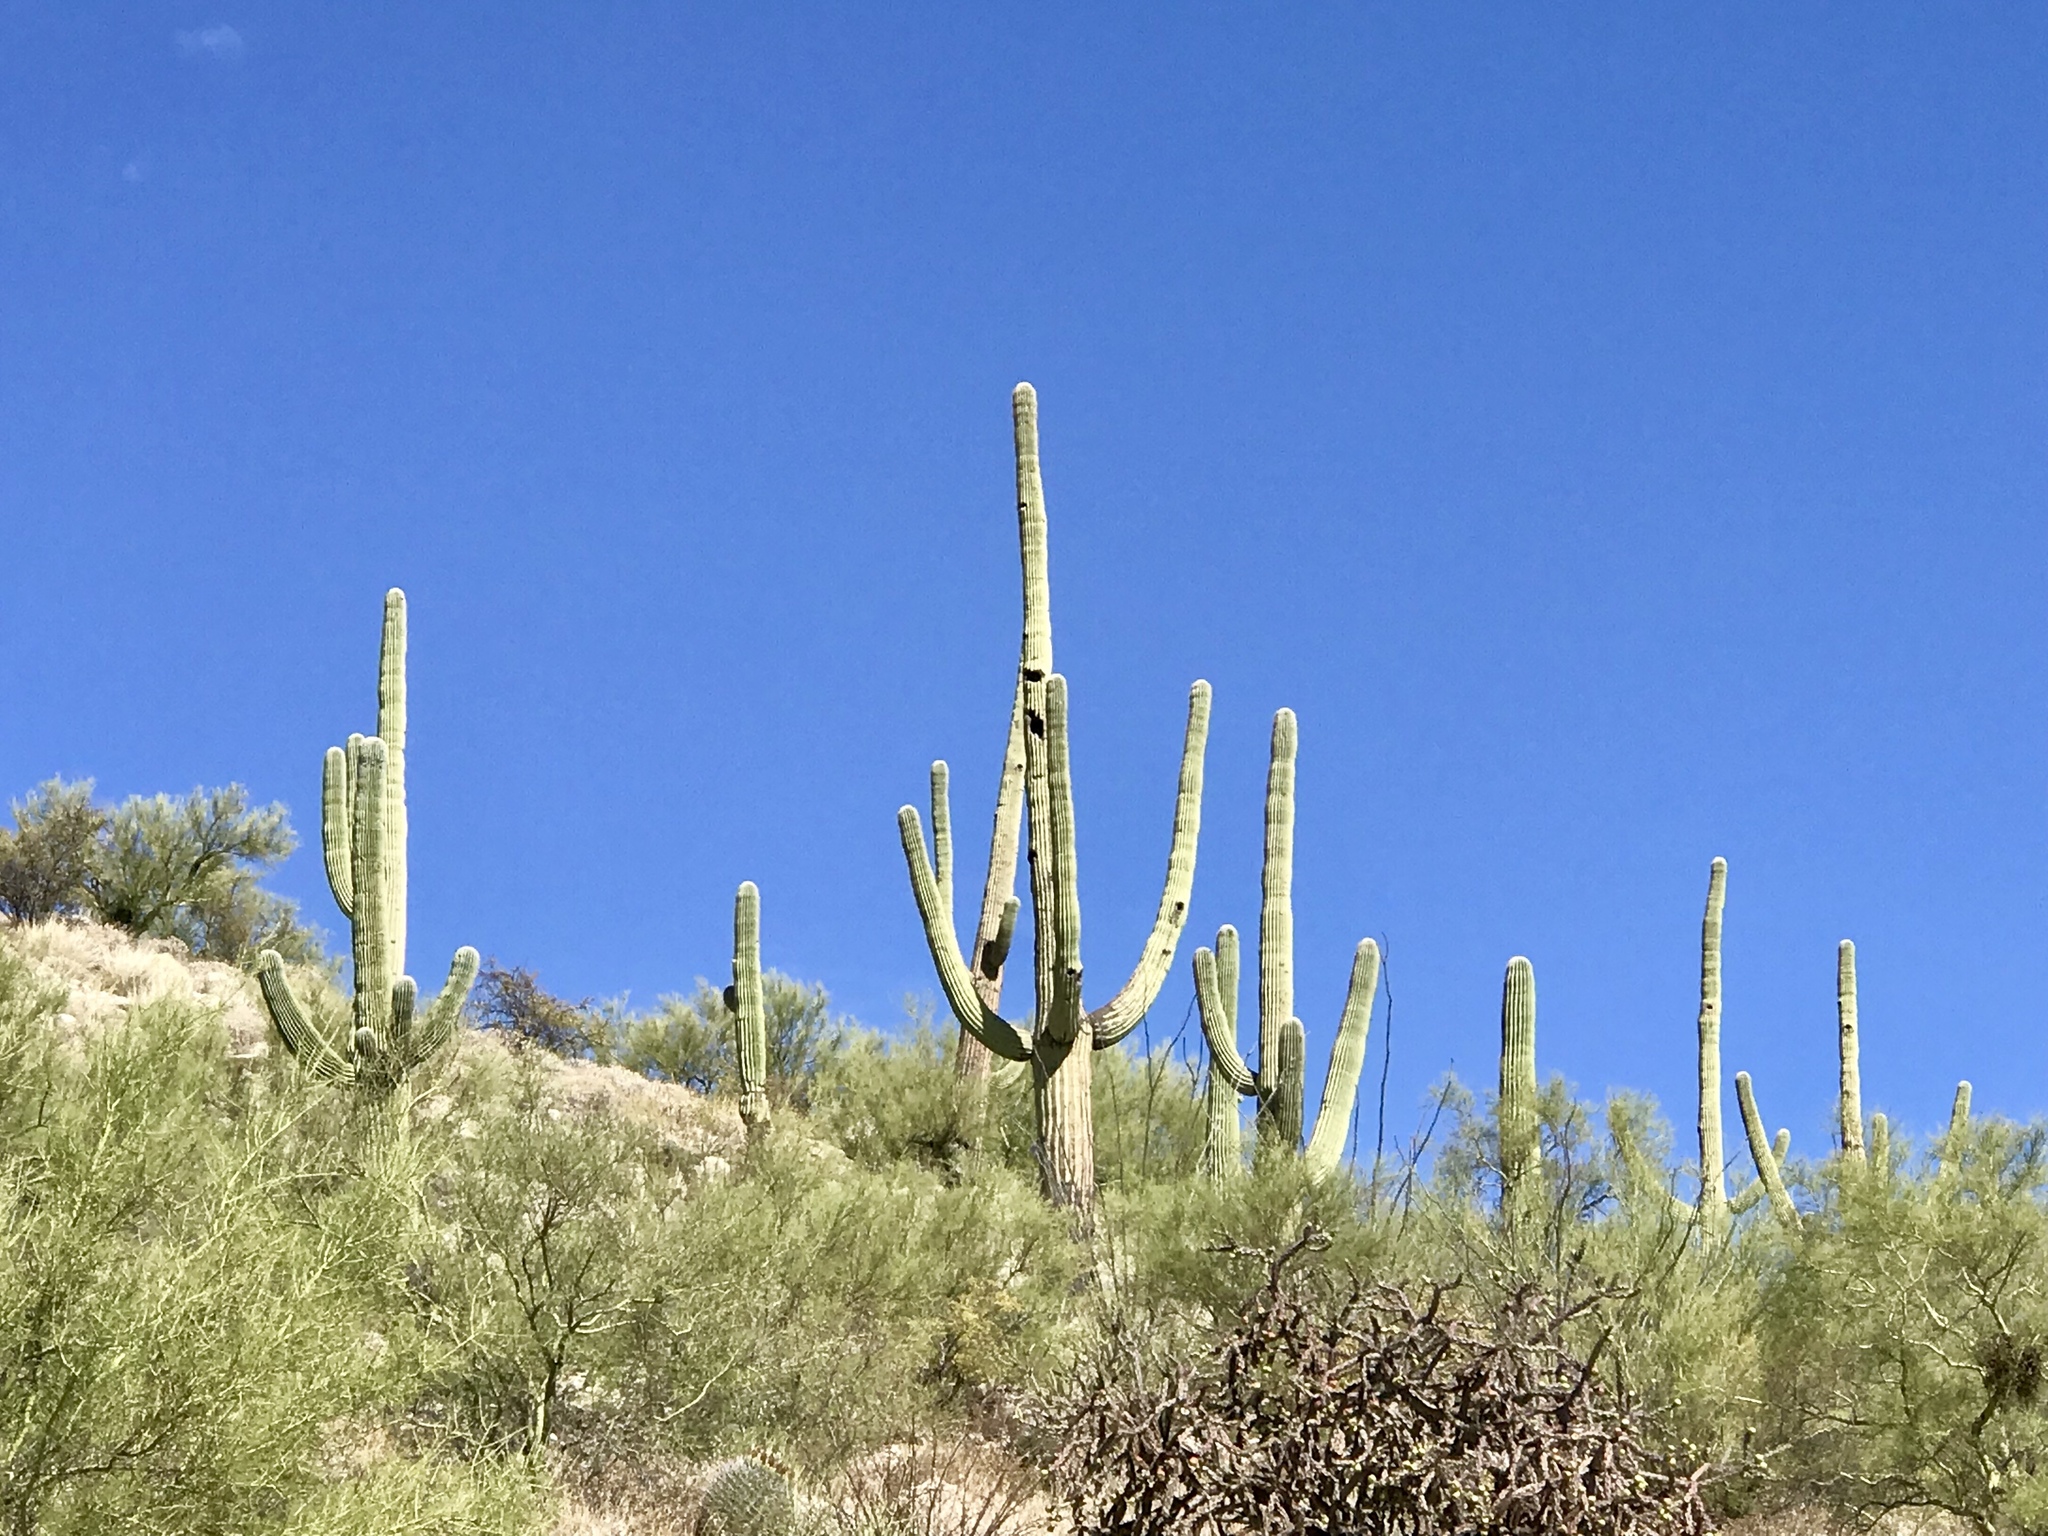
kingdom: Plantae
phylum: Tracheophyta
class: Magnoliopsida
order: Caryophyllales
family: Cactaceae
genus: Carnegiea
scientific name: Carnegiea gigantea
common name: Saguaro
